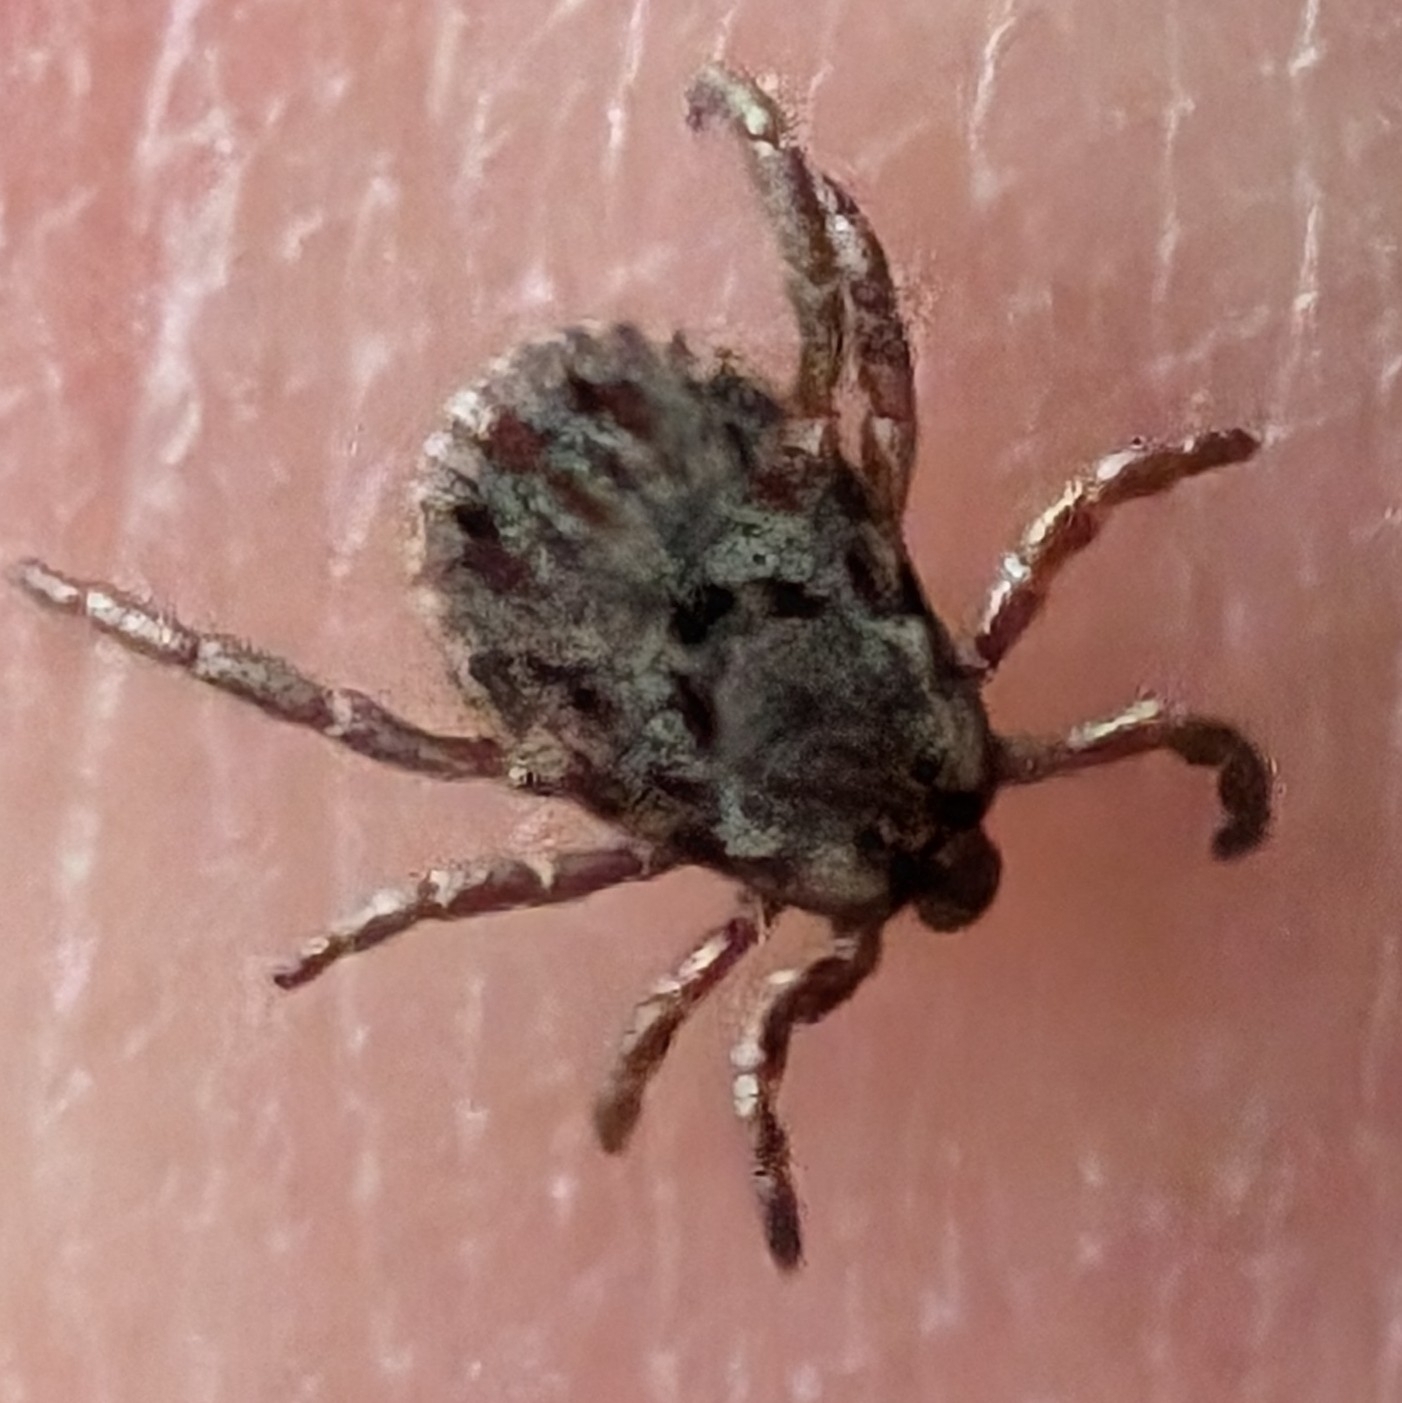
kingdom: Animalia
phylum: Arthropoda
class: Arachnida
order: Ixodida
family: Ixodidae
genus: Dermacentor
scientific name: Dermacentor occidentalis
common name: Net tick
